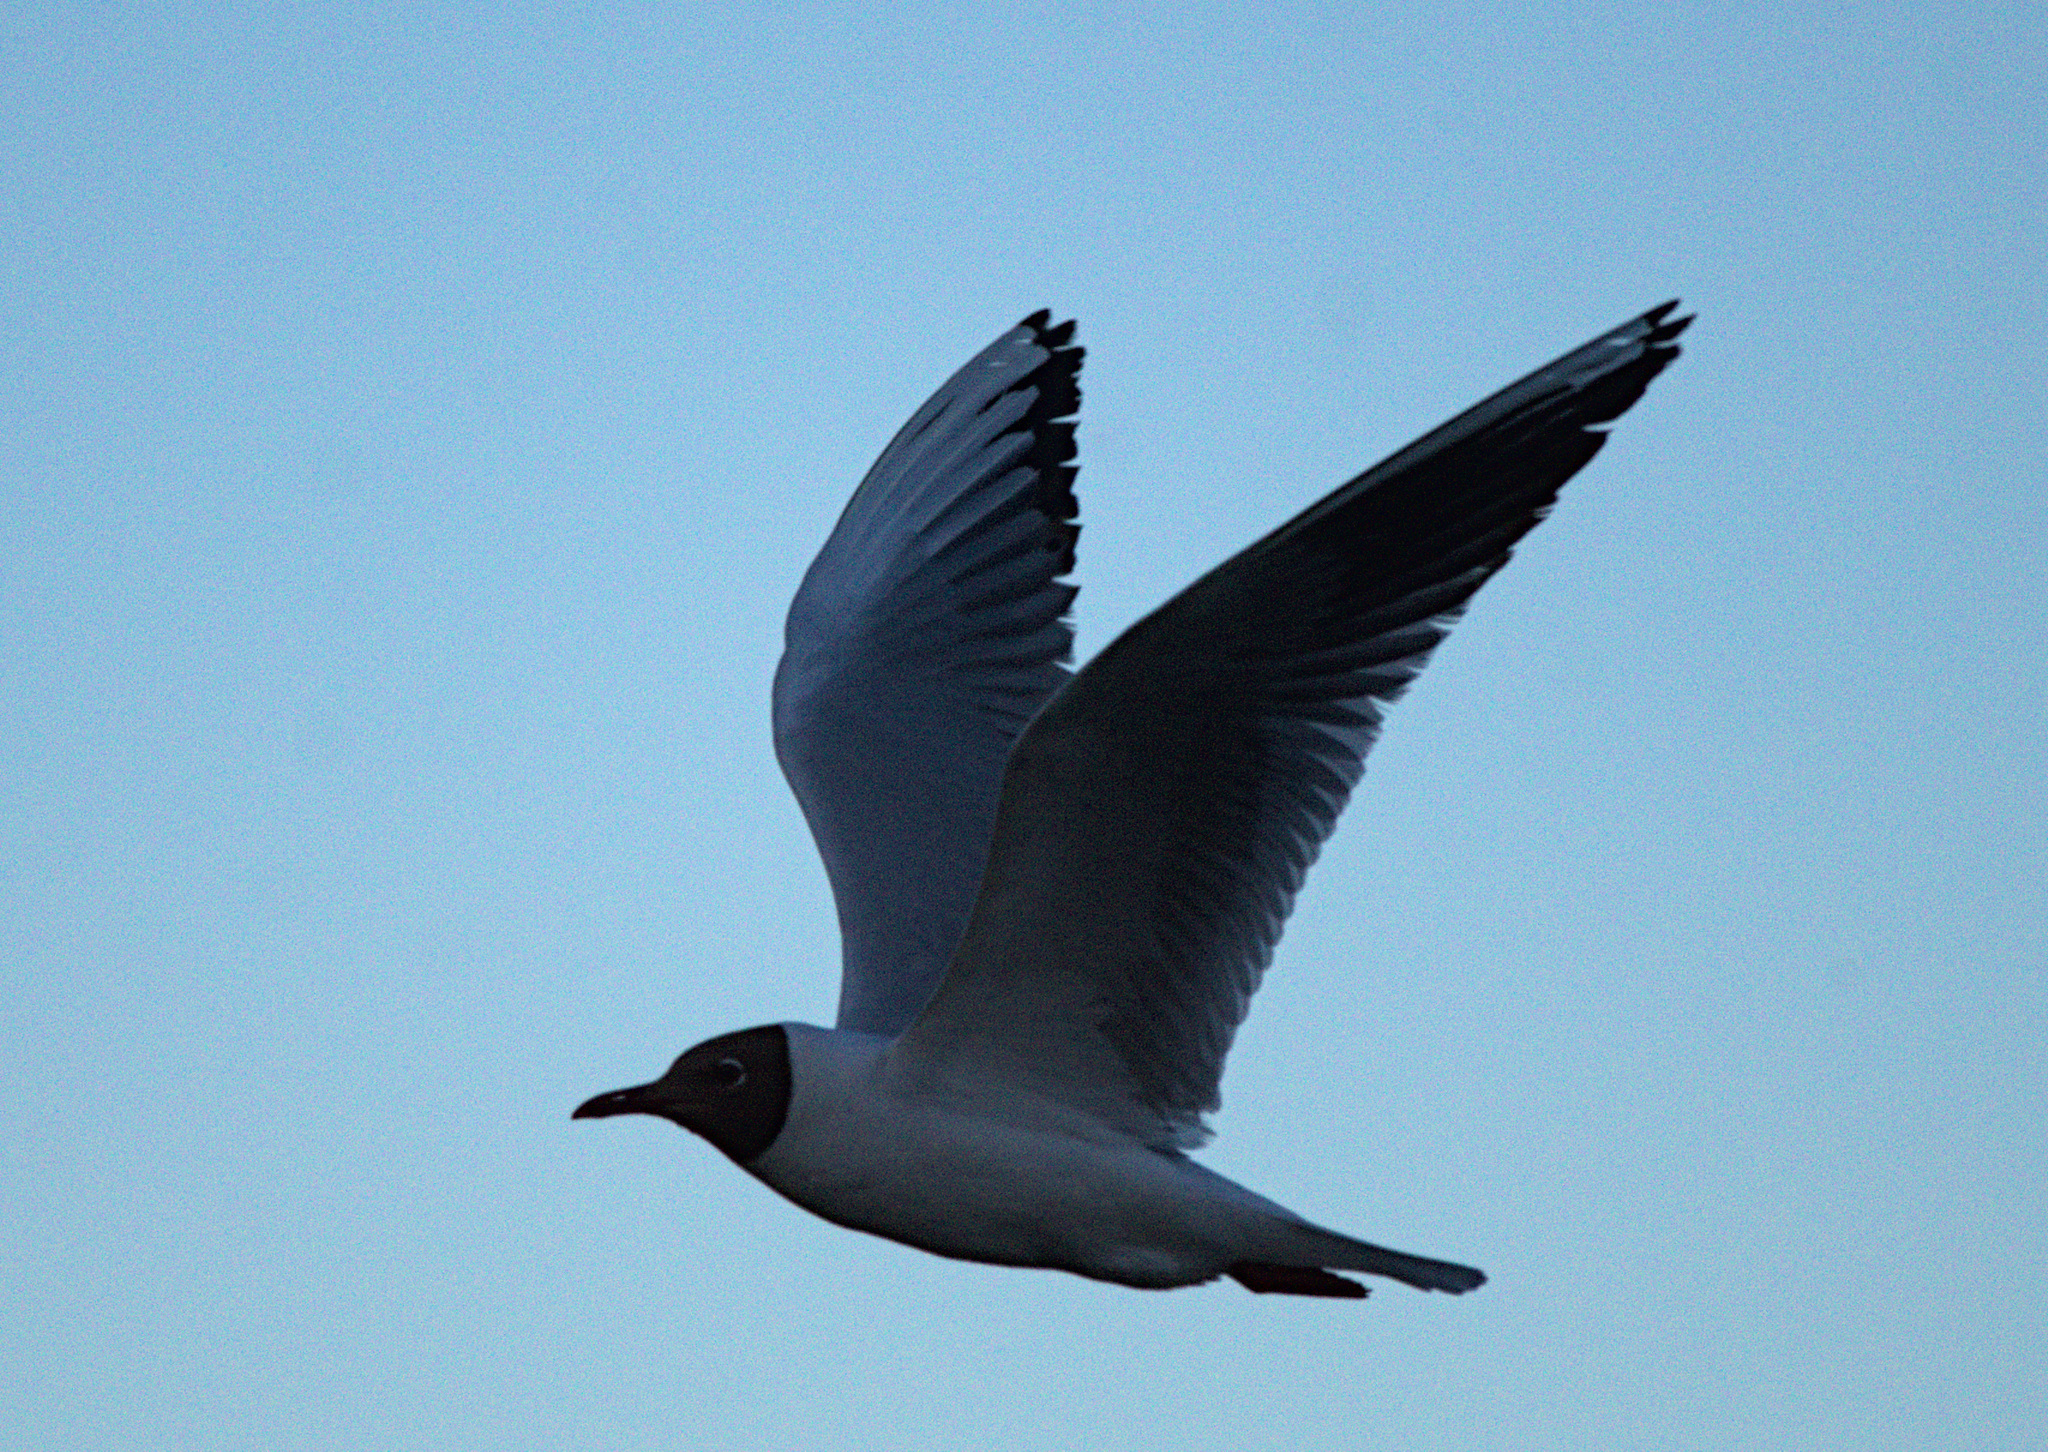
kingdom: Animalia
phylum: Chordata
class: Aves
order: Charadriiformes
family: Laridae
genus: Chroicocephalus
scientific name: Chroicocephalus ridibundus
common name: Black-headed gull
